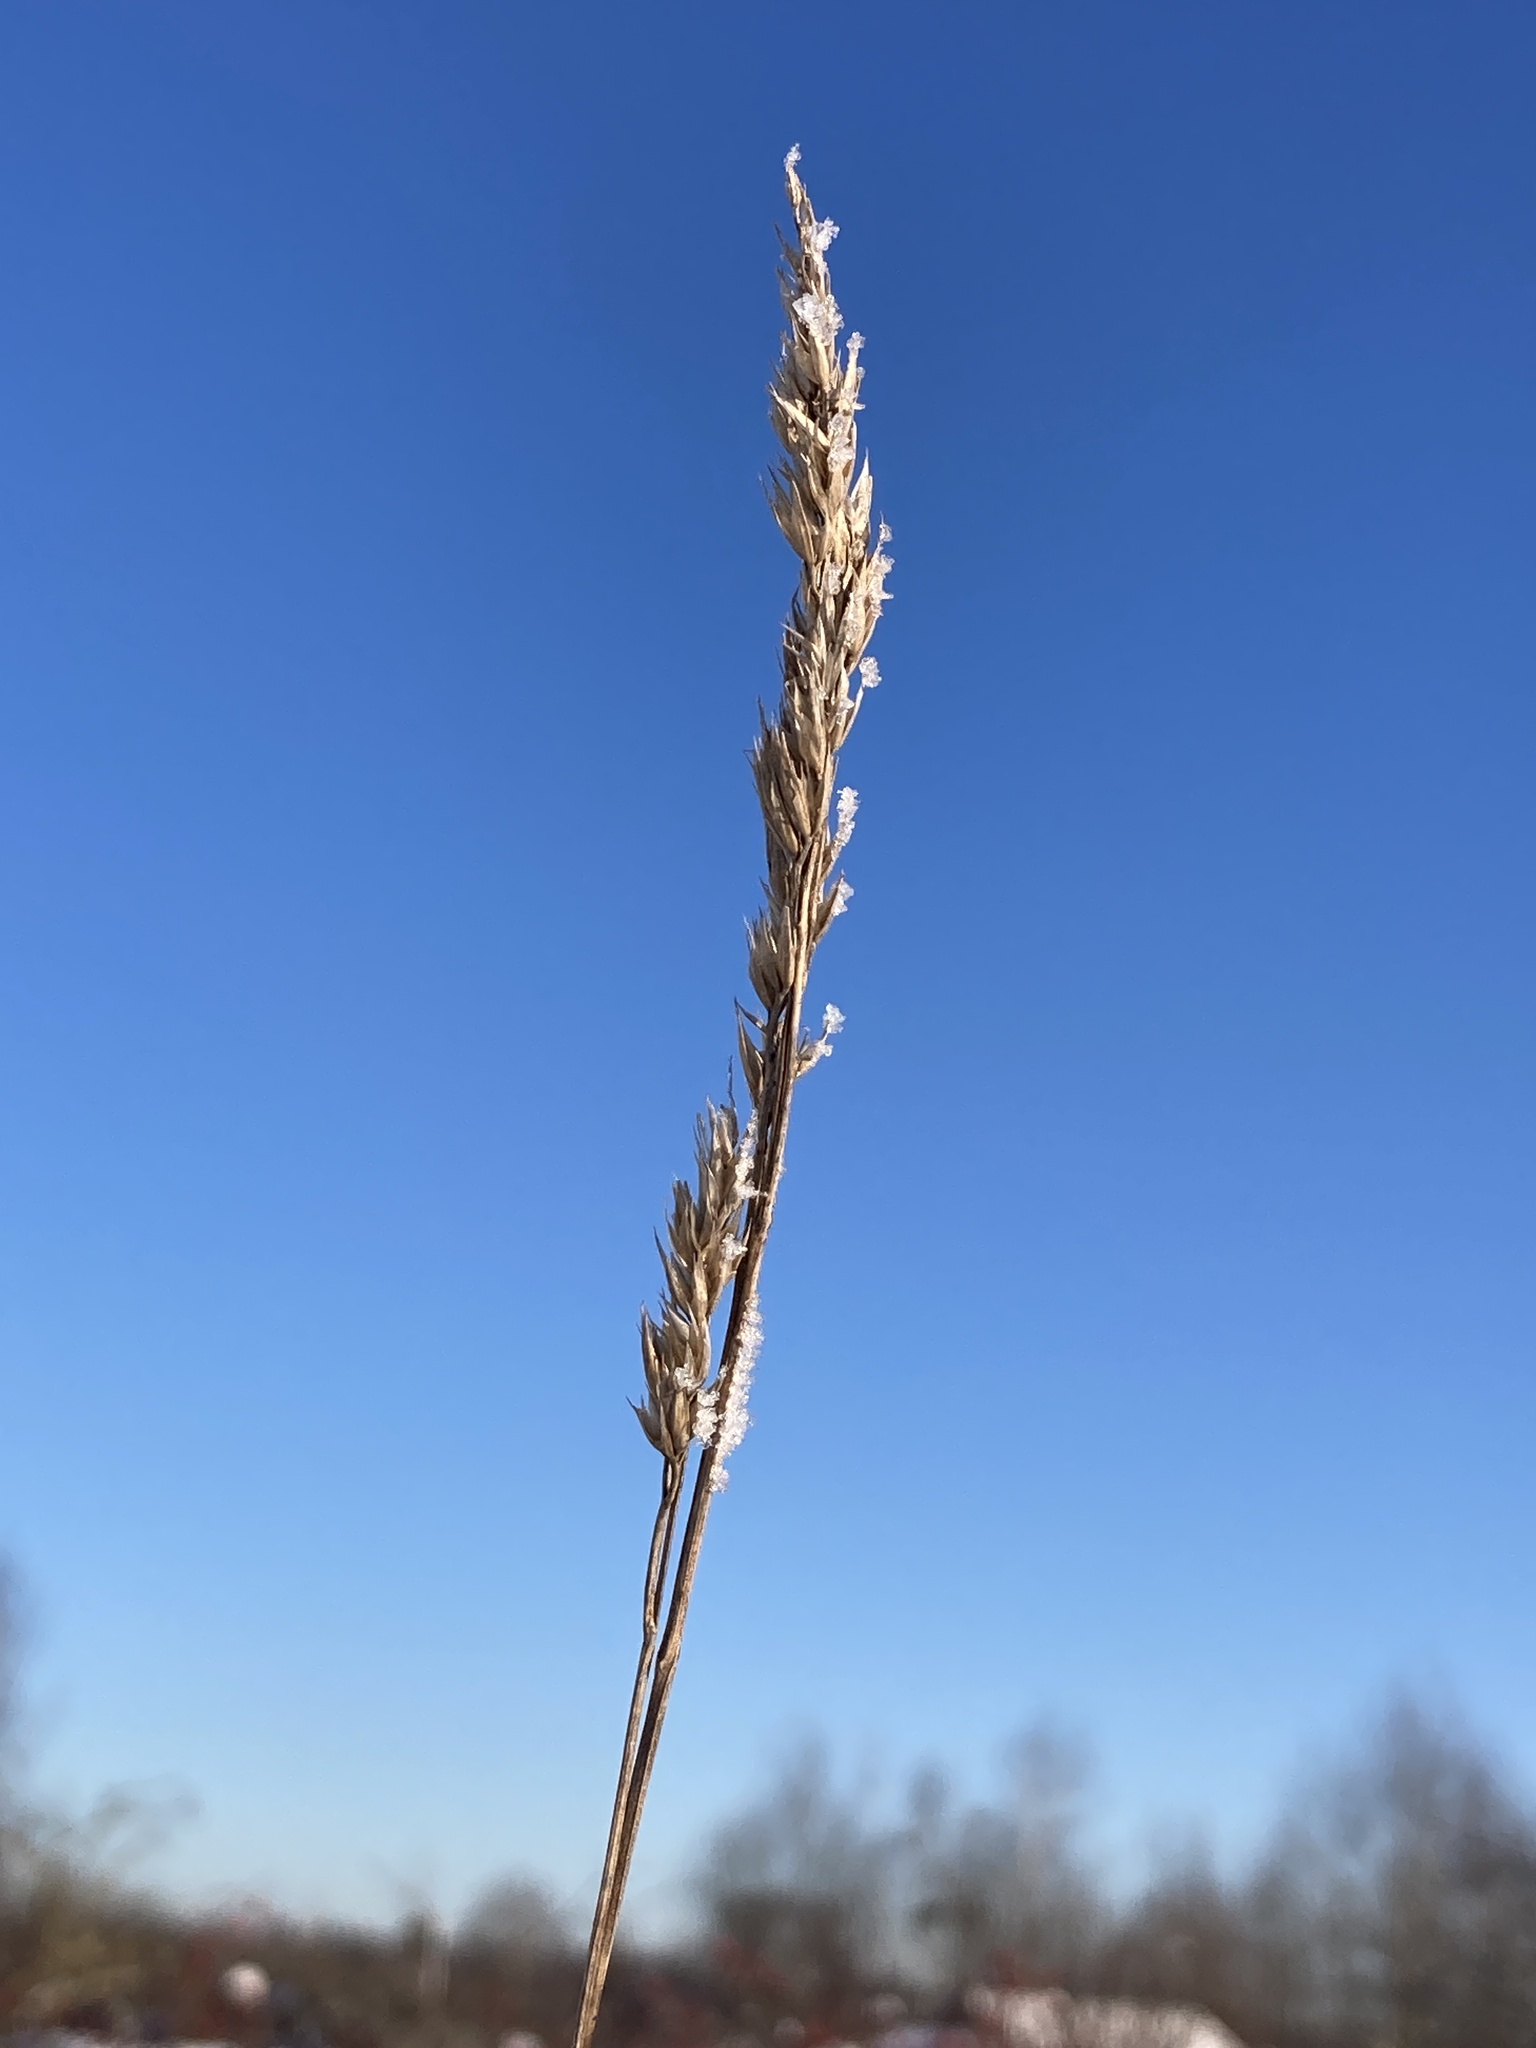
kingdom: Plantae
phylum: Tracheophyta
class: Liliopsida
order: Poales
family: Poaceae
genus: Dactylis
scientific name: Dactylis glomerata
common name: Orchardgrass
